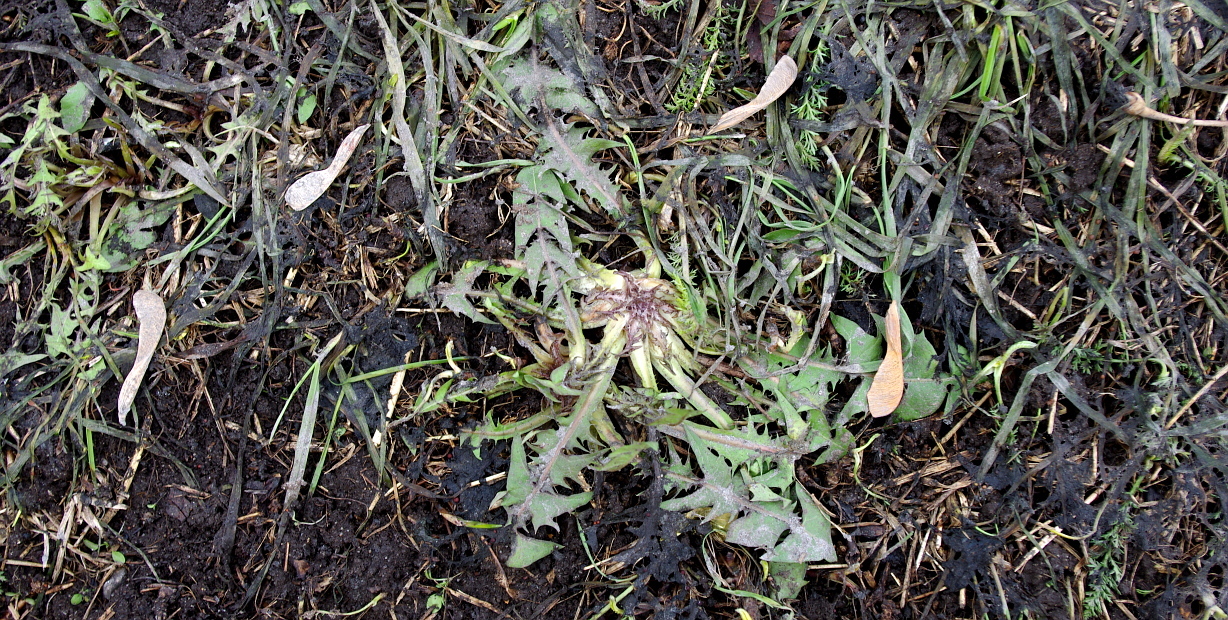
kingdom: Plantae
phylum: Tracheophyta
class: Magnoliopsida
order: Asterales
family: Asteraceae
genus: Taraxacum
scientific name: Taraxacum officinale
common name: Common dandelion
